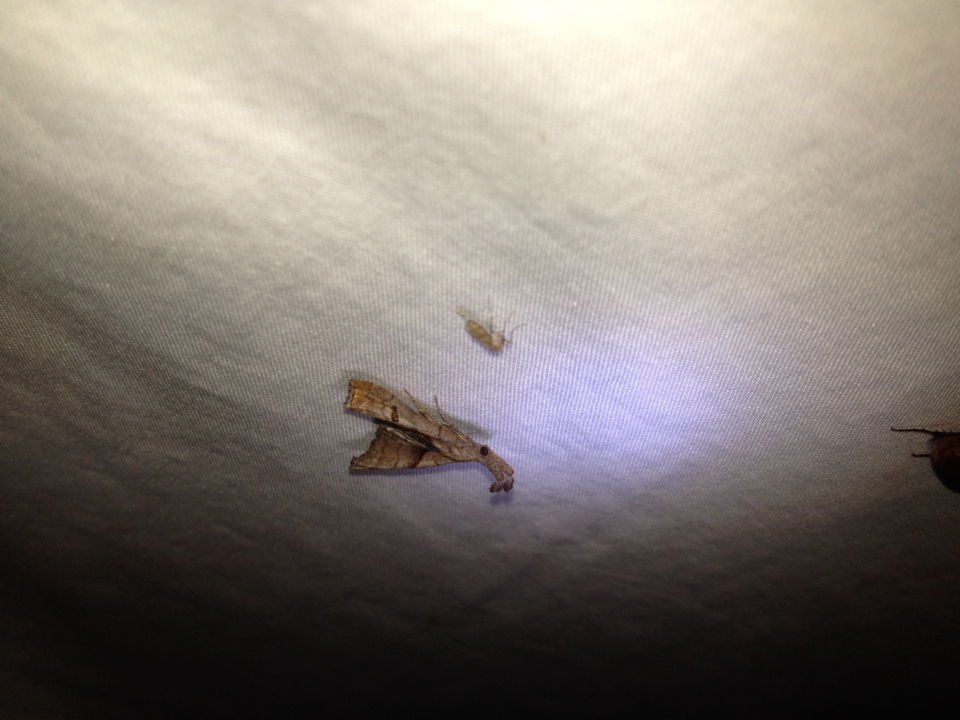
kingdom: Animalia
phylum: Arthropoda
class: Insecta
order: Lepidoptera
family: Erebidae
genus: Palthis
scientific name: Palthis angulalis
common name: Dark-spotted palthis moth
